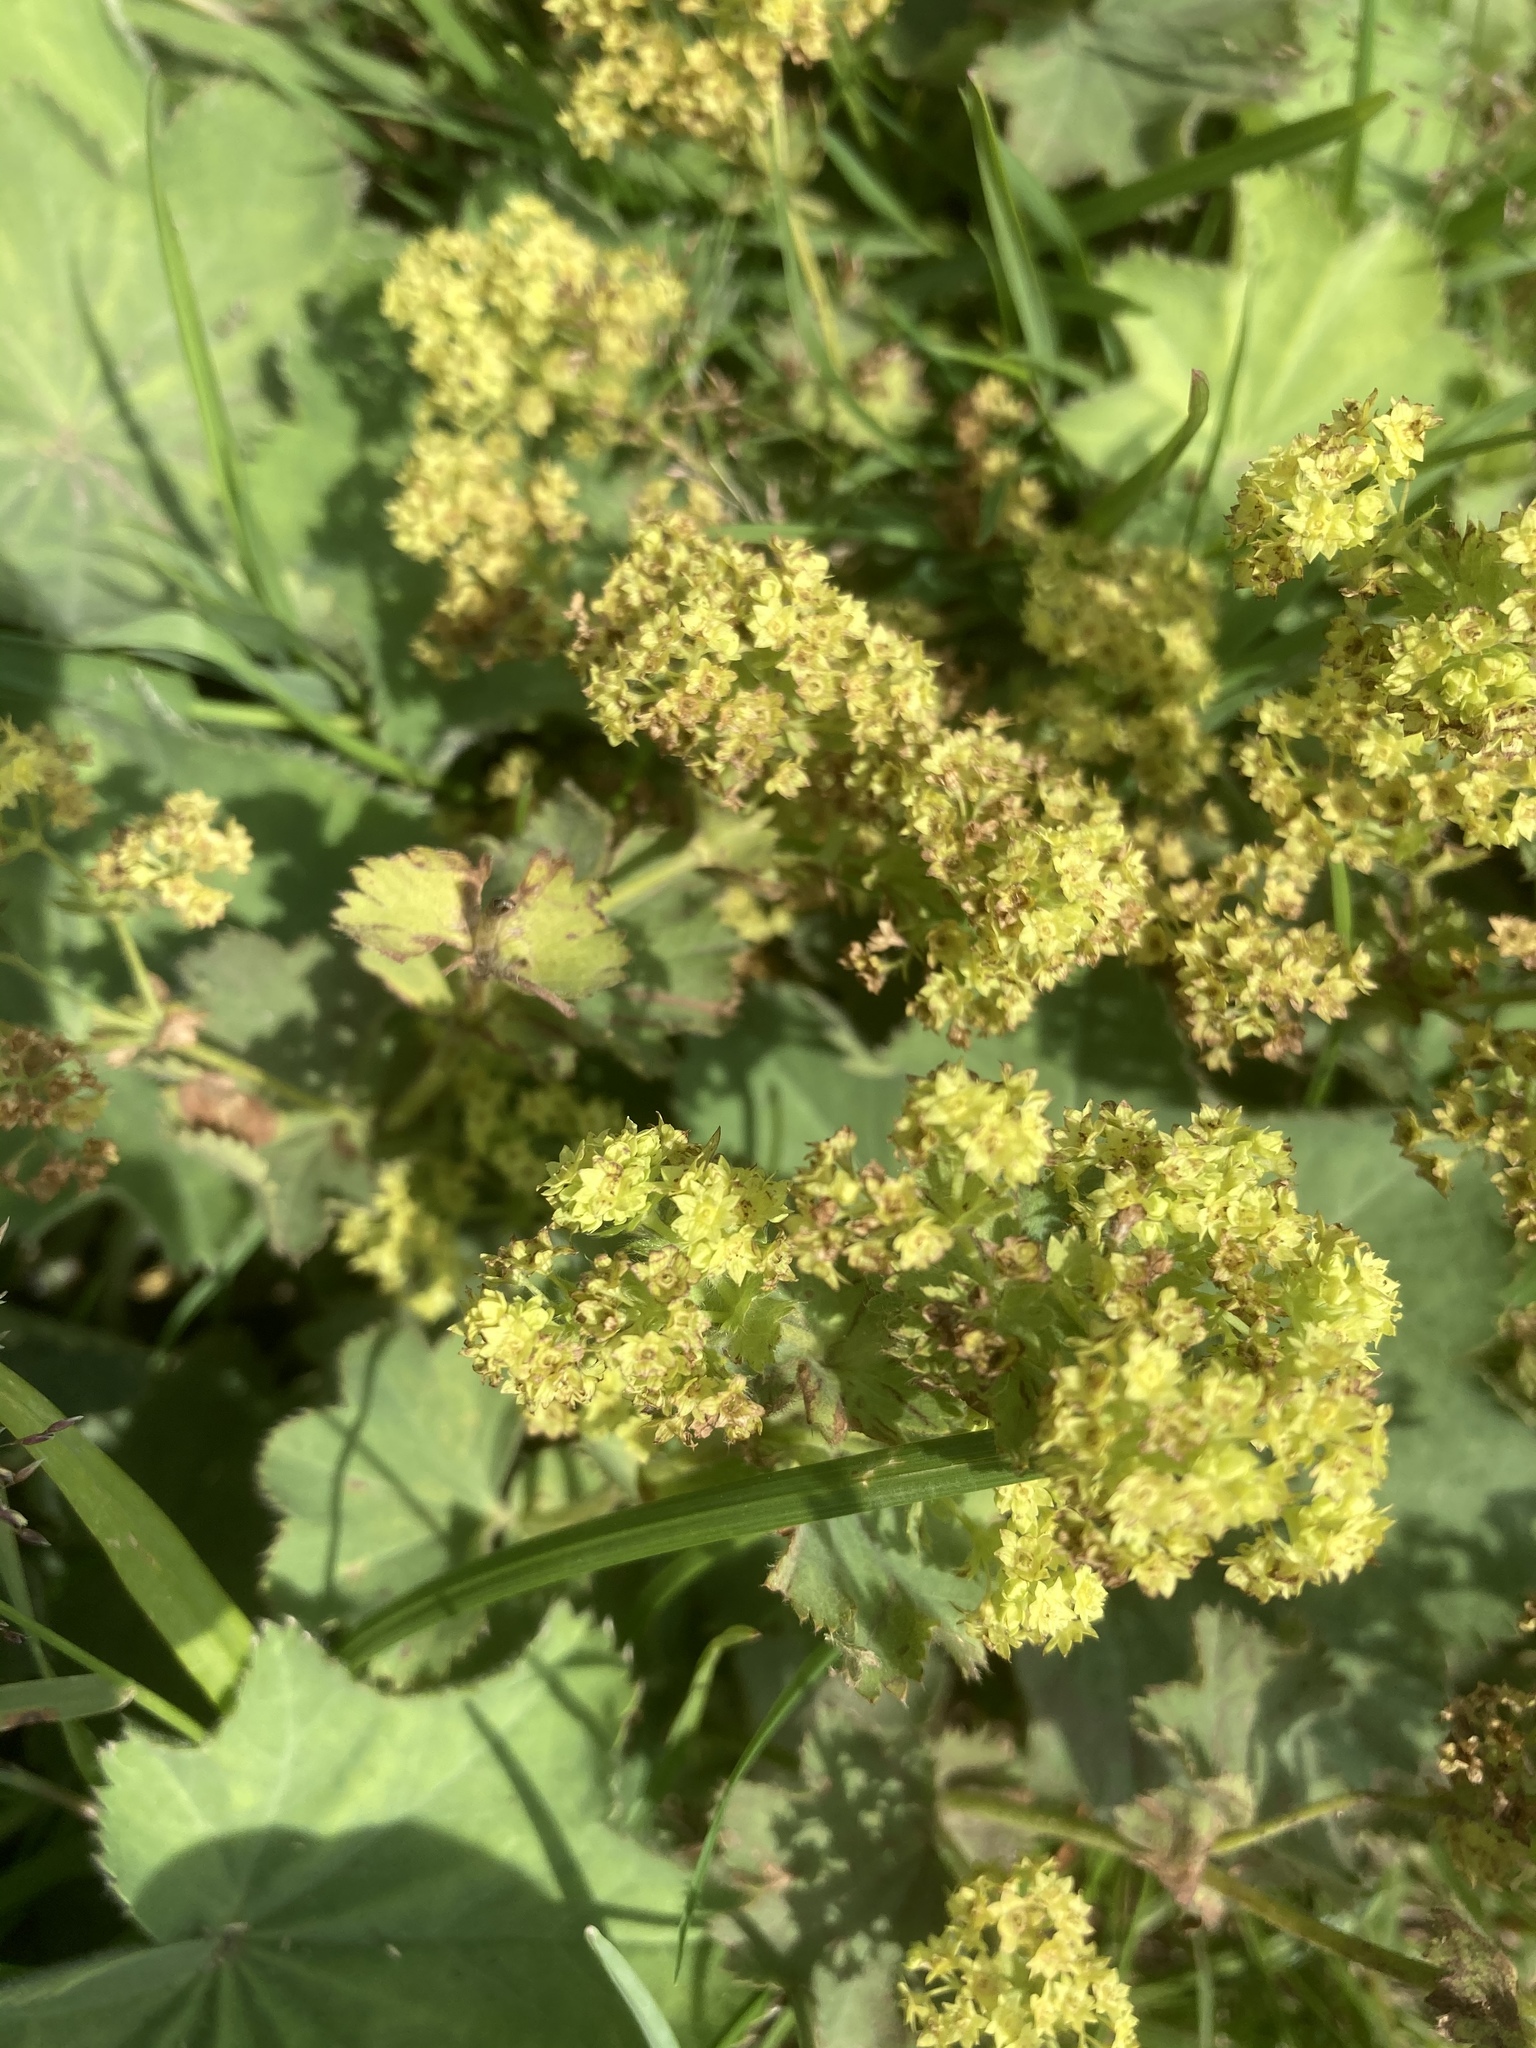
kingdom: Plantae
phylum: Tracheophyta
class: Magnoliopsida
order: Rosales
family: Rosaceae
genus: Alchemilla
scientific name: Alchemilla mollis
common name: Lady's-mantle
